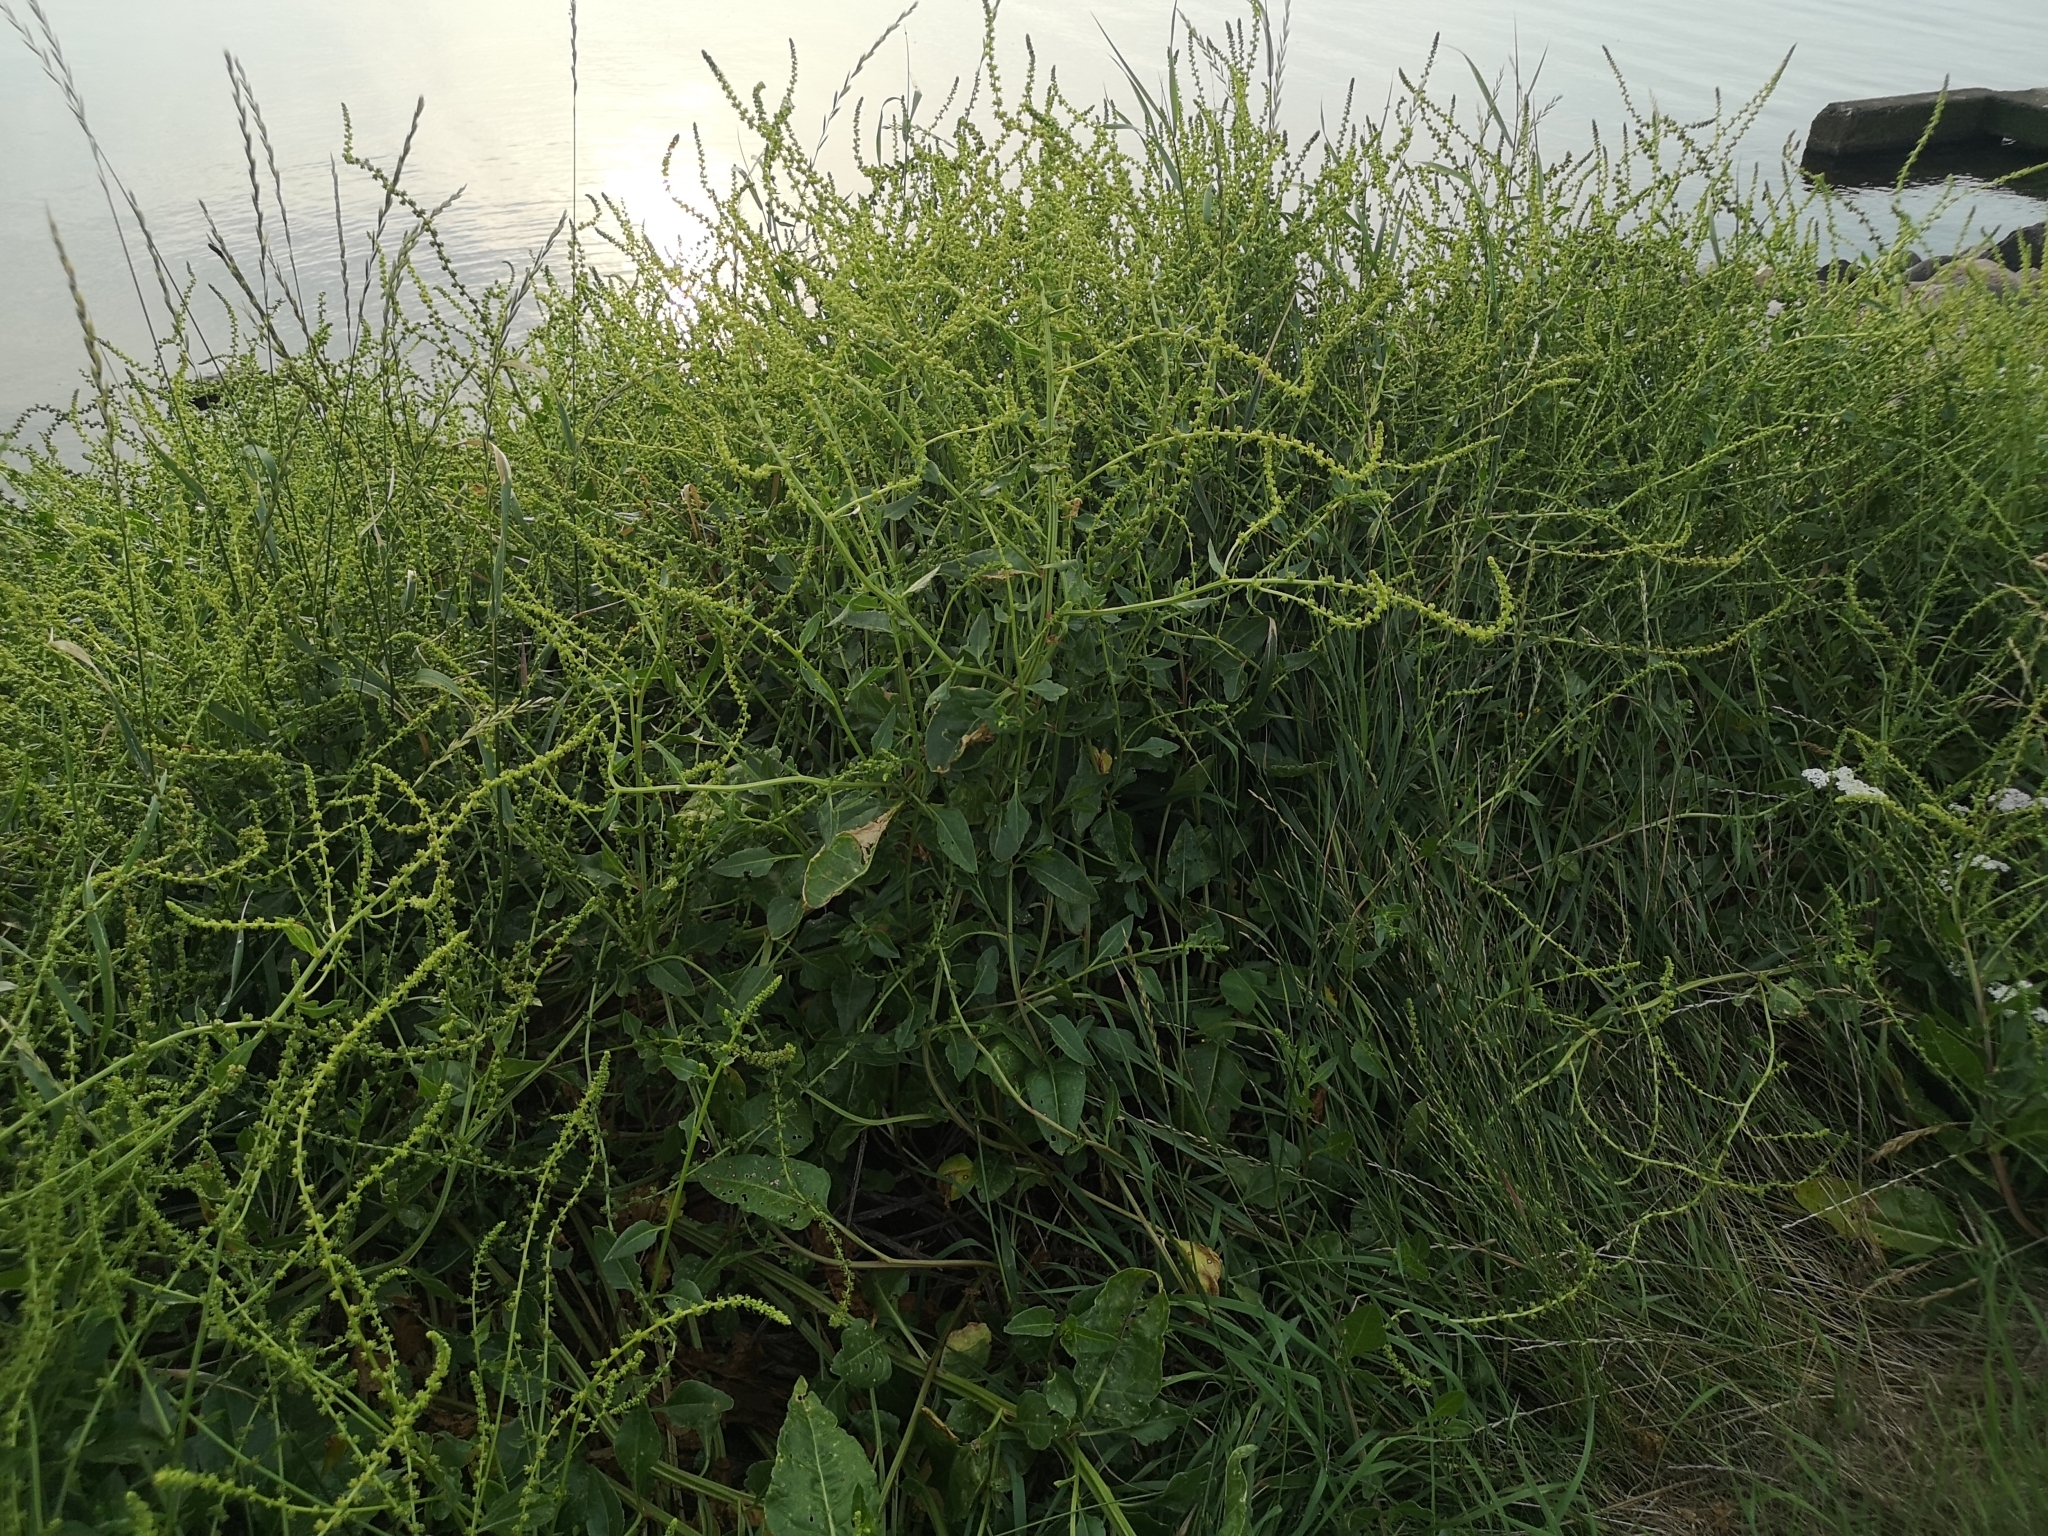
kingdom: Plantae
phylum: Tracheophyta
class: Magnoliopsida
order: Caryophyllales
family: Amaranthaceae
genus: Beta
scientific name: Beta vulgaris
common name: Beet
